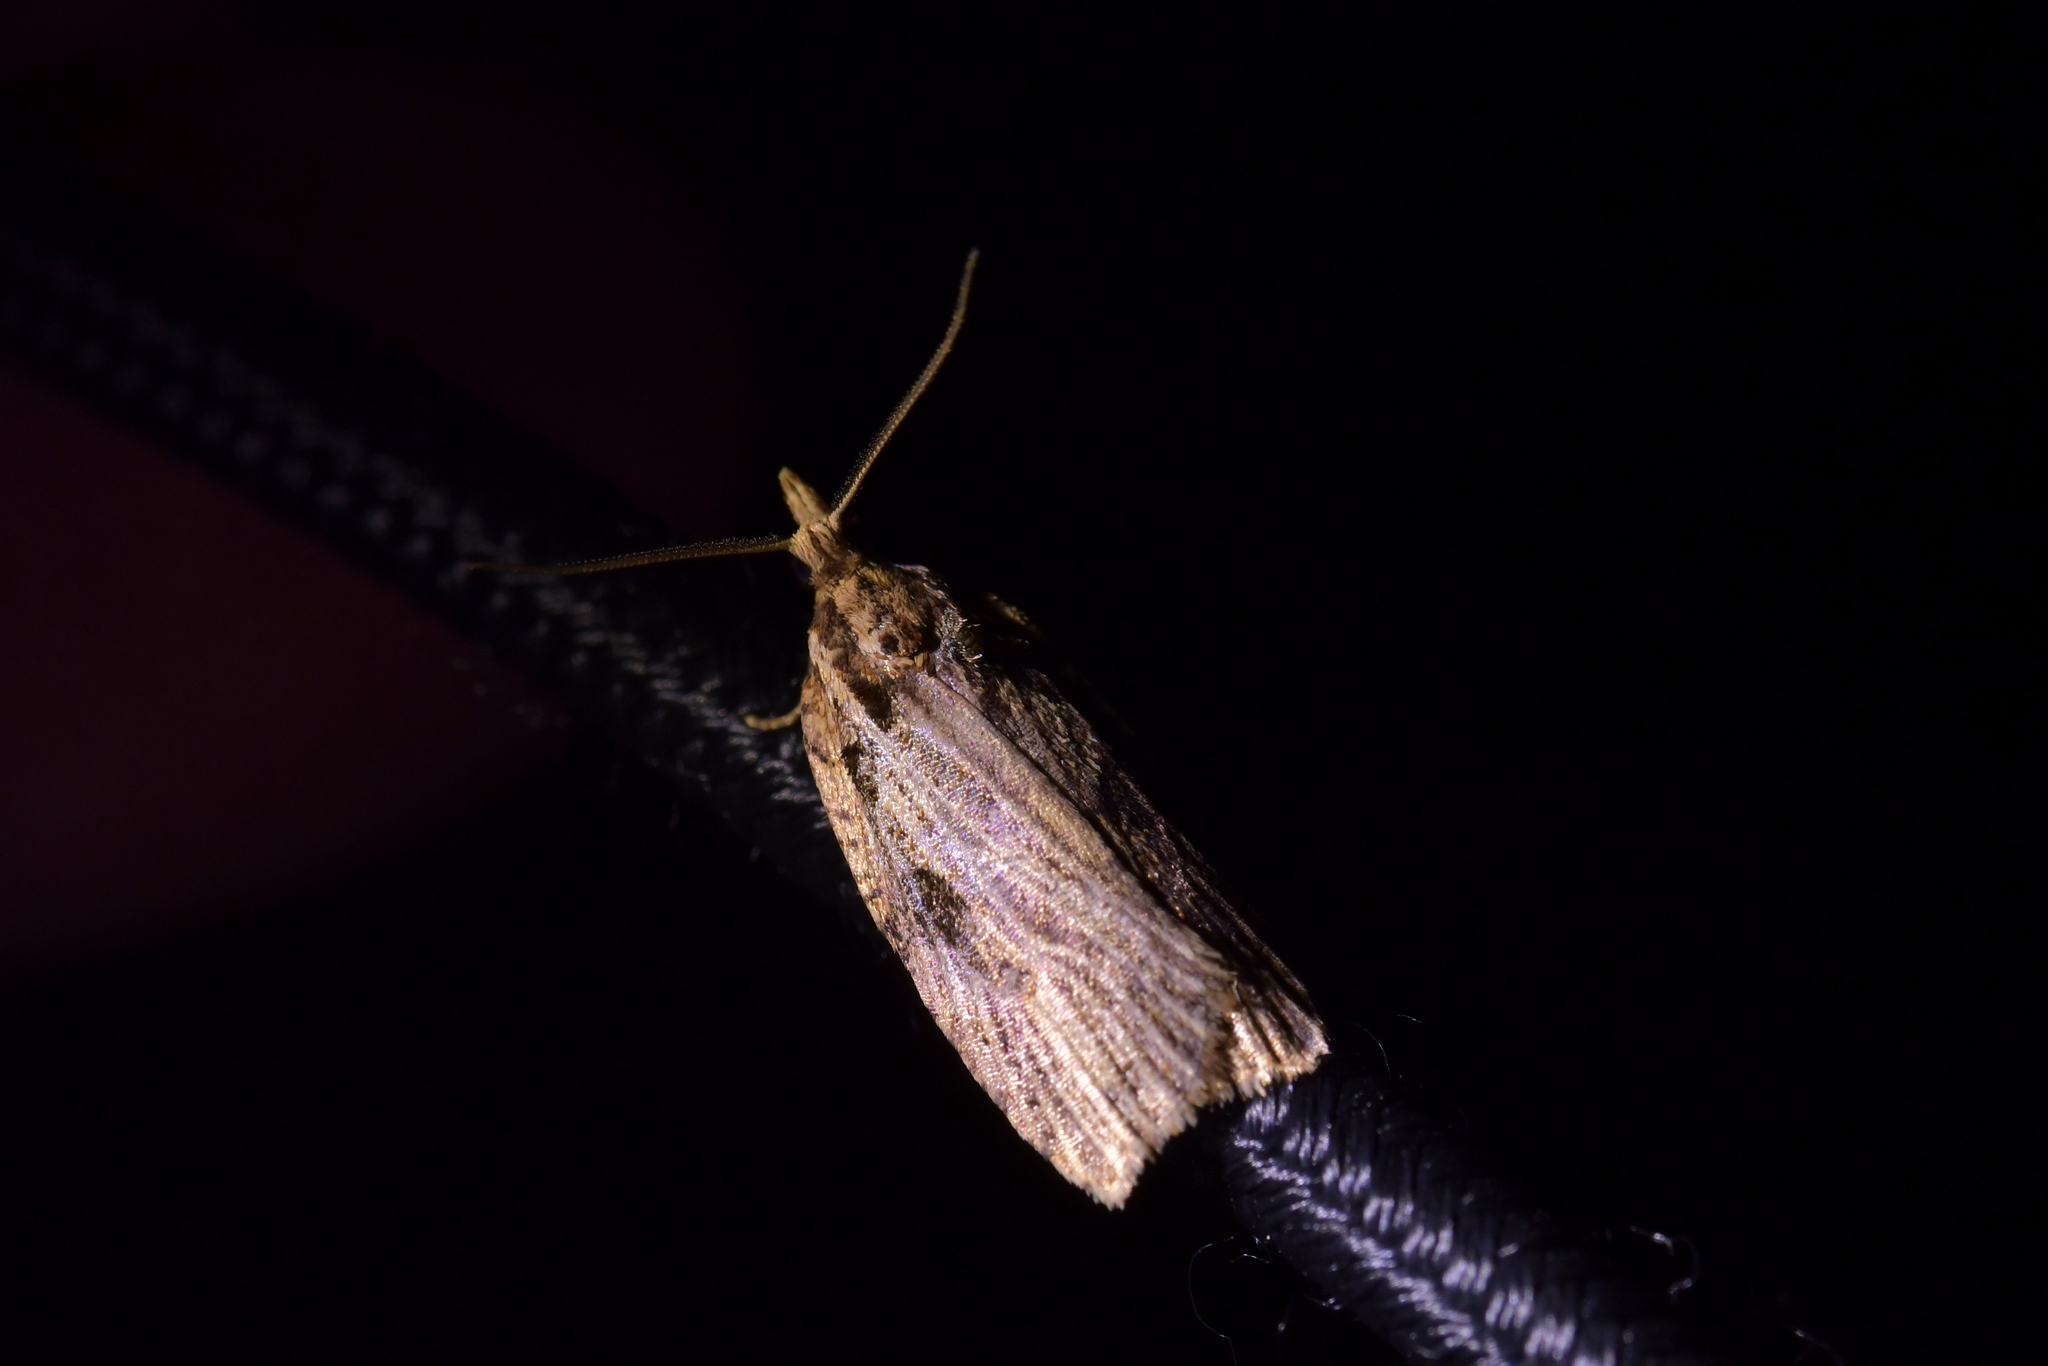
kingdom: Animalia
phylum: Arthropoda
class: Insecta
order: Lepidoptera
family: Tortricidae
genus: Ctenopseustis
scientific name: Ctenopseustis obliquana
